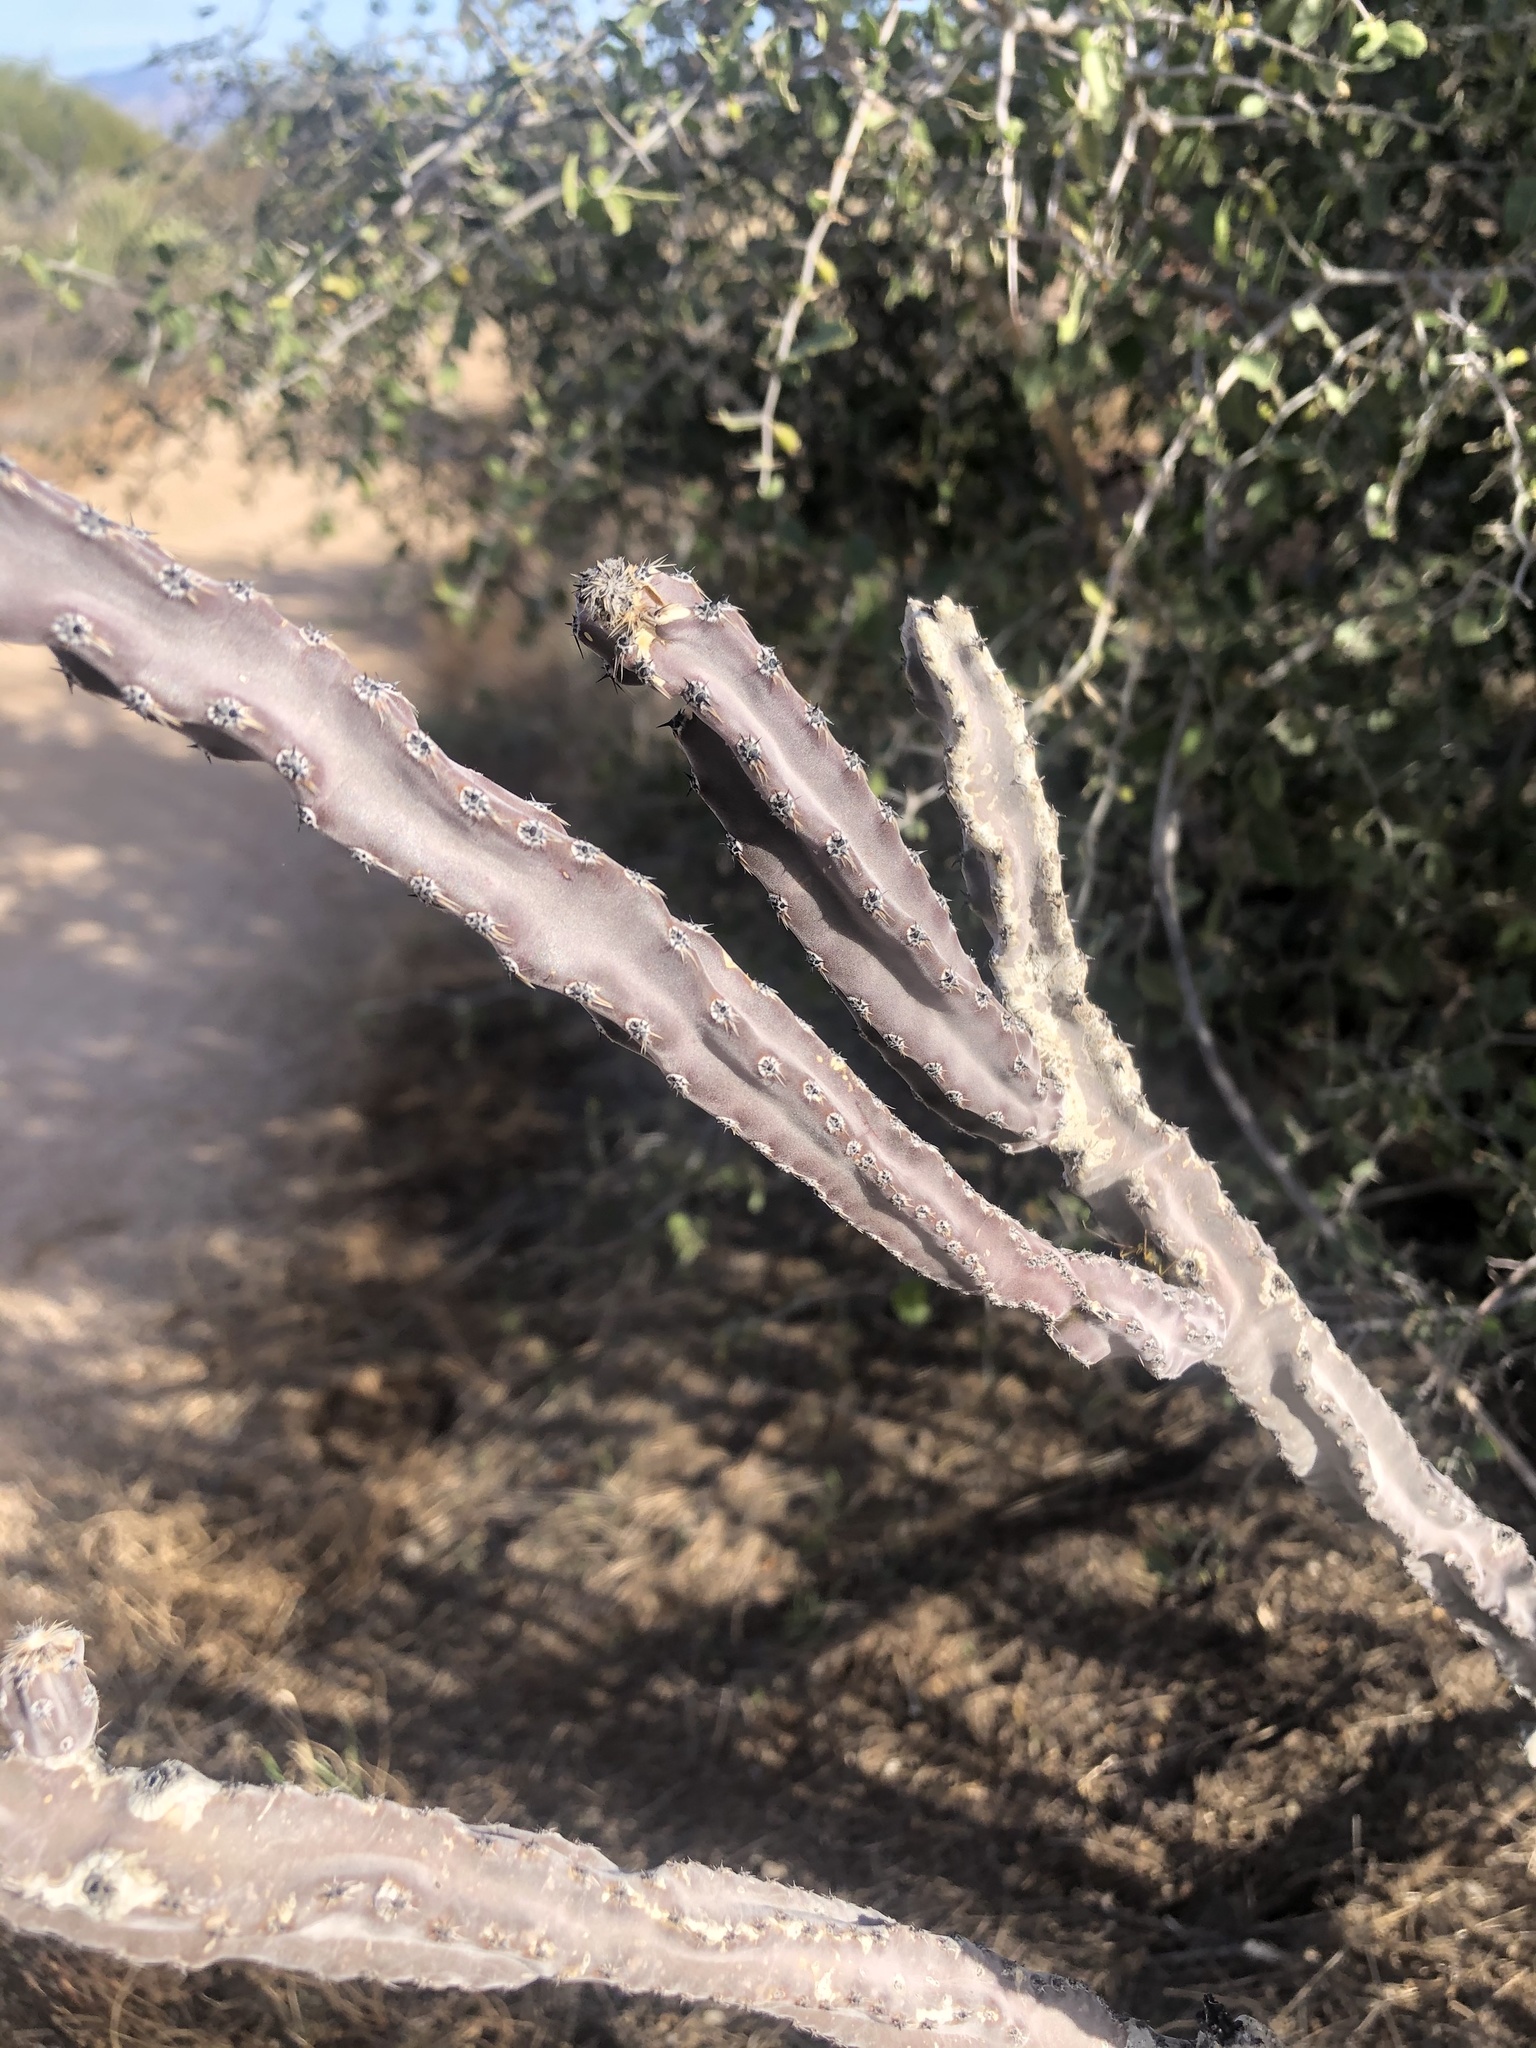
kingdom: Plantae
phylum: Tracheophyta
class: Magnoliopsida
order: Caryophyllales
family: Cactaceae
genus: Peniocereus
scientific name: Peniocereus greggii
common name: Desert night-blooming cereus
